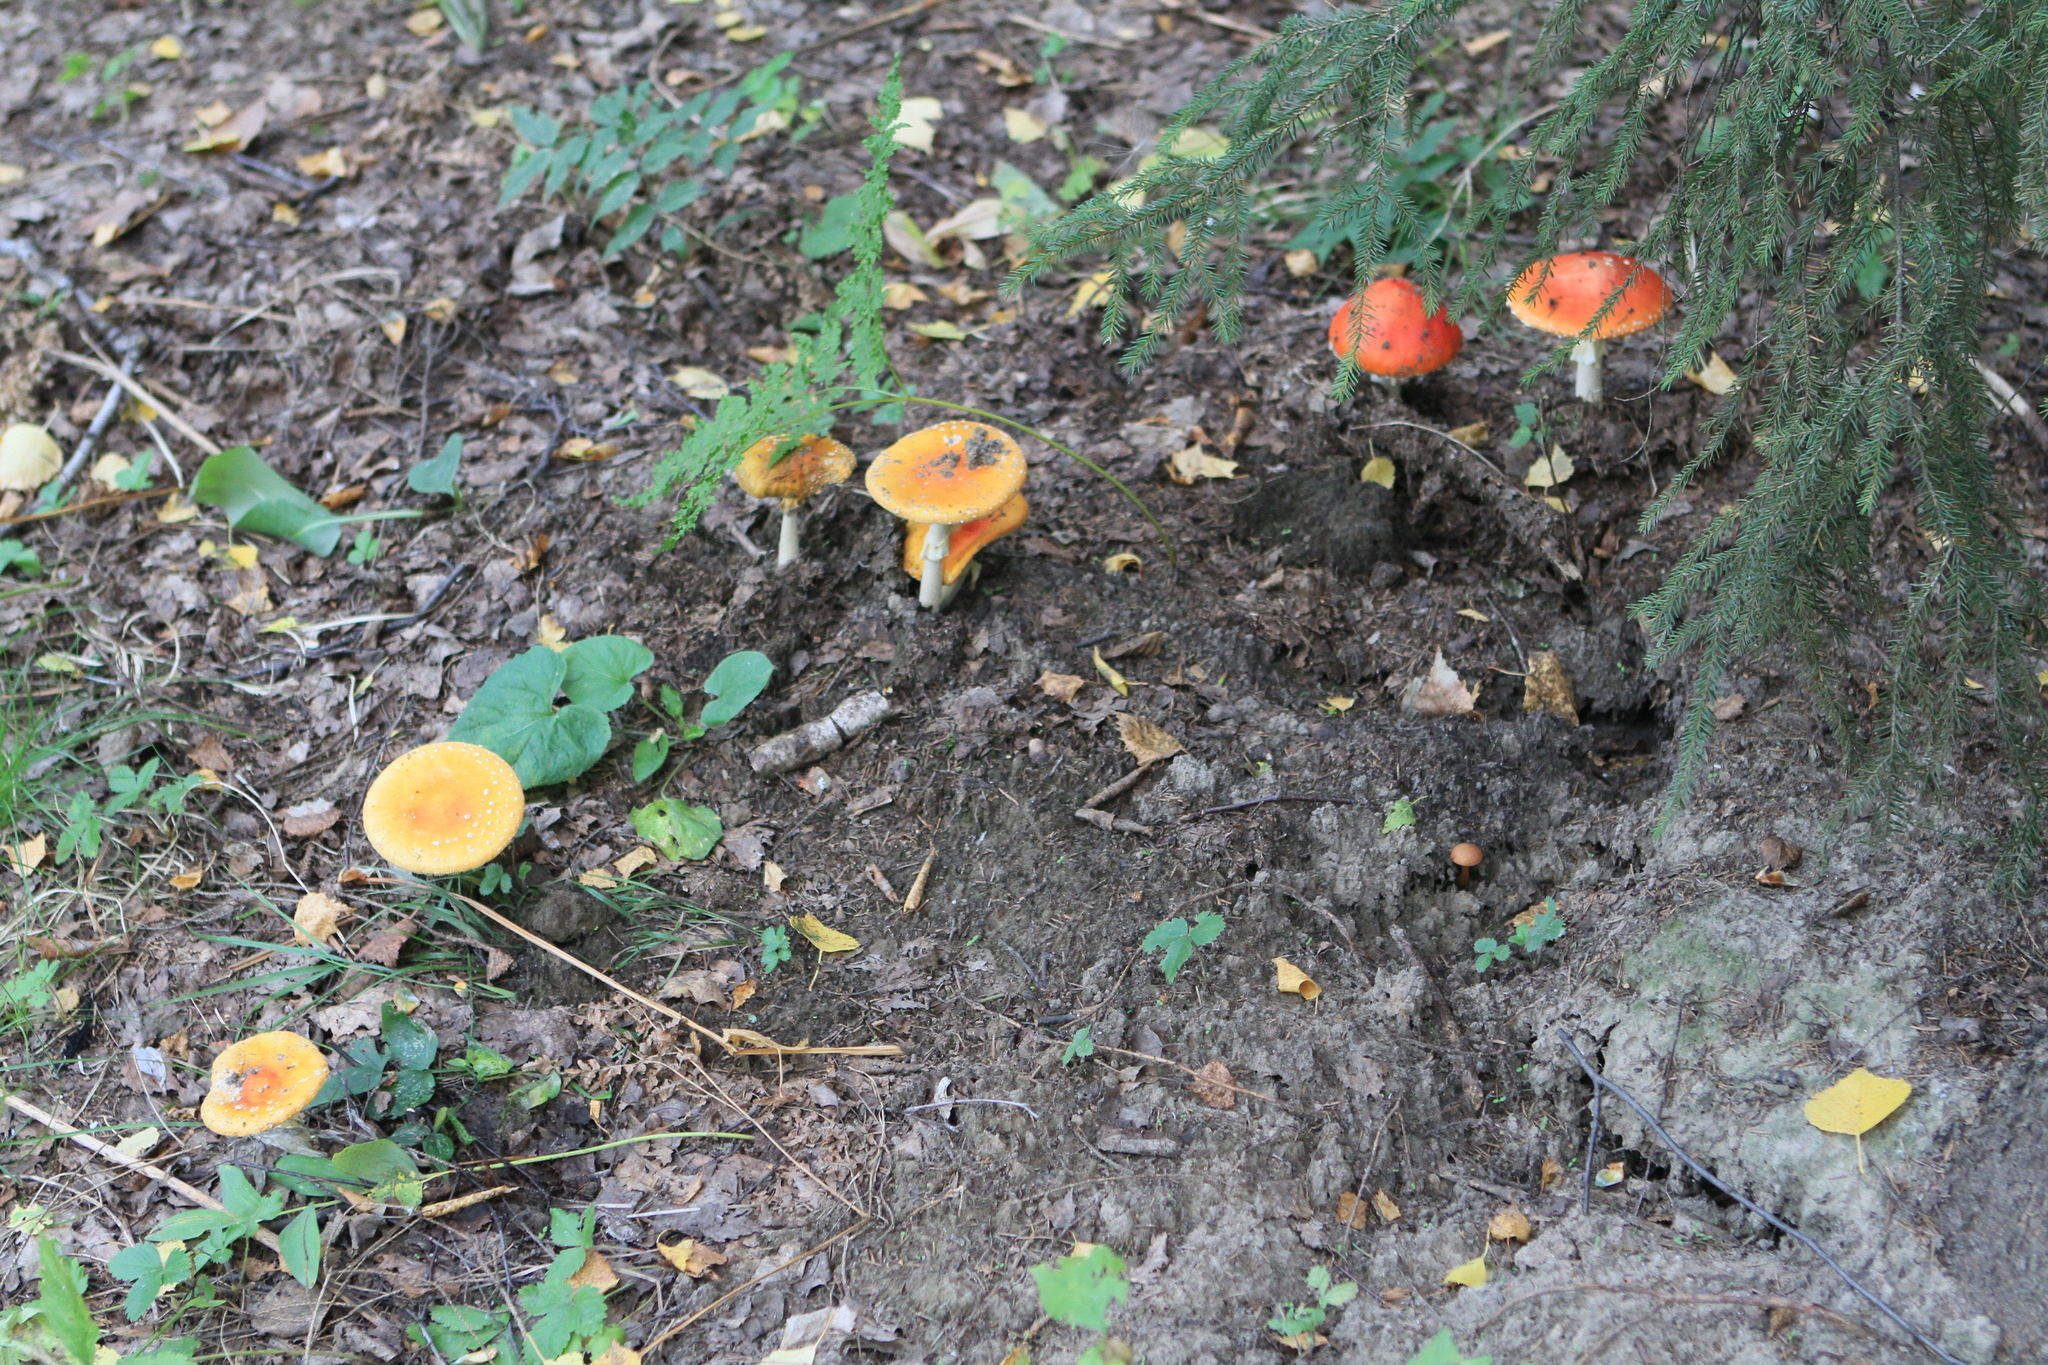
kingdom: Fungi
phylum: Basidiomycota
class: Agaricomycetes
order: Agaricales
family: Amanitaceae
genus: Amanita
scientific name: Amanita muscaria
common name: Fly agaric
